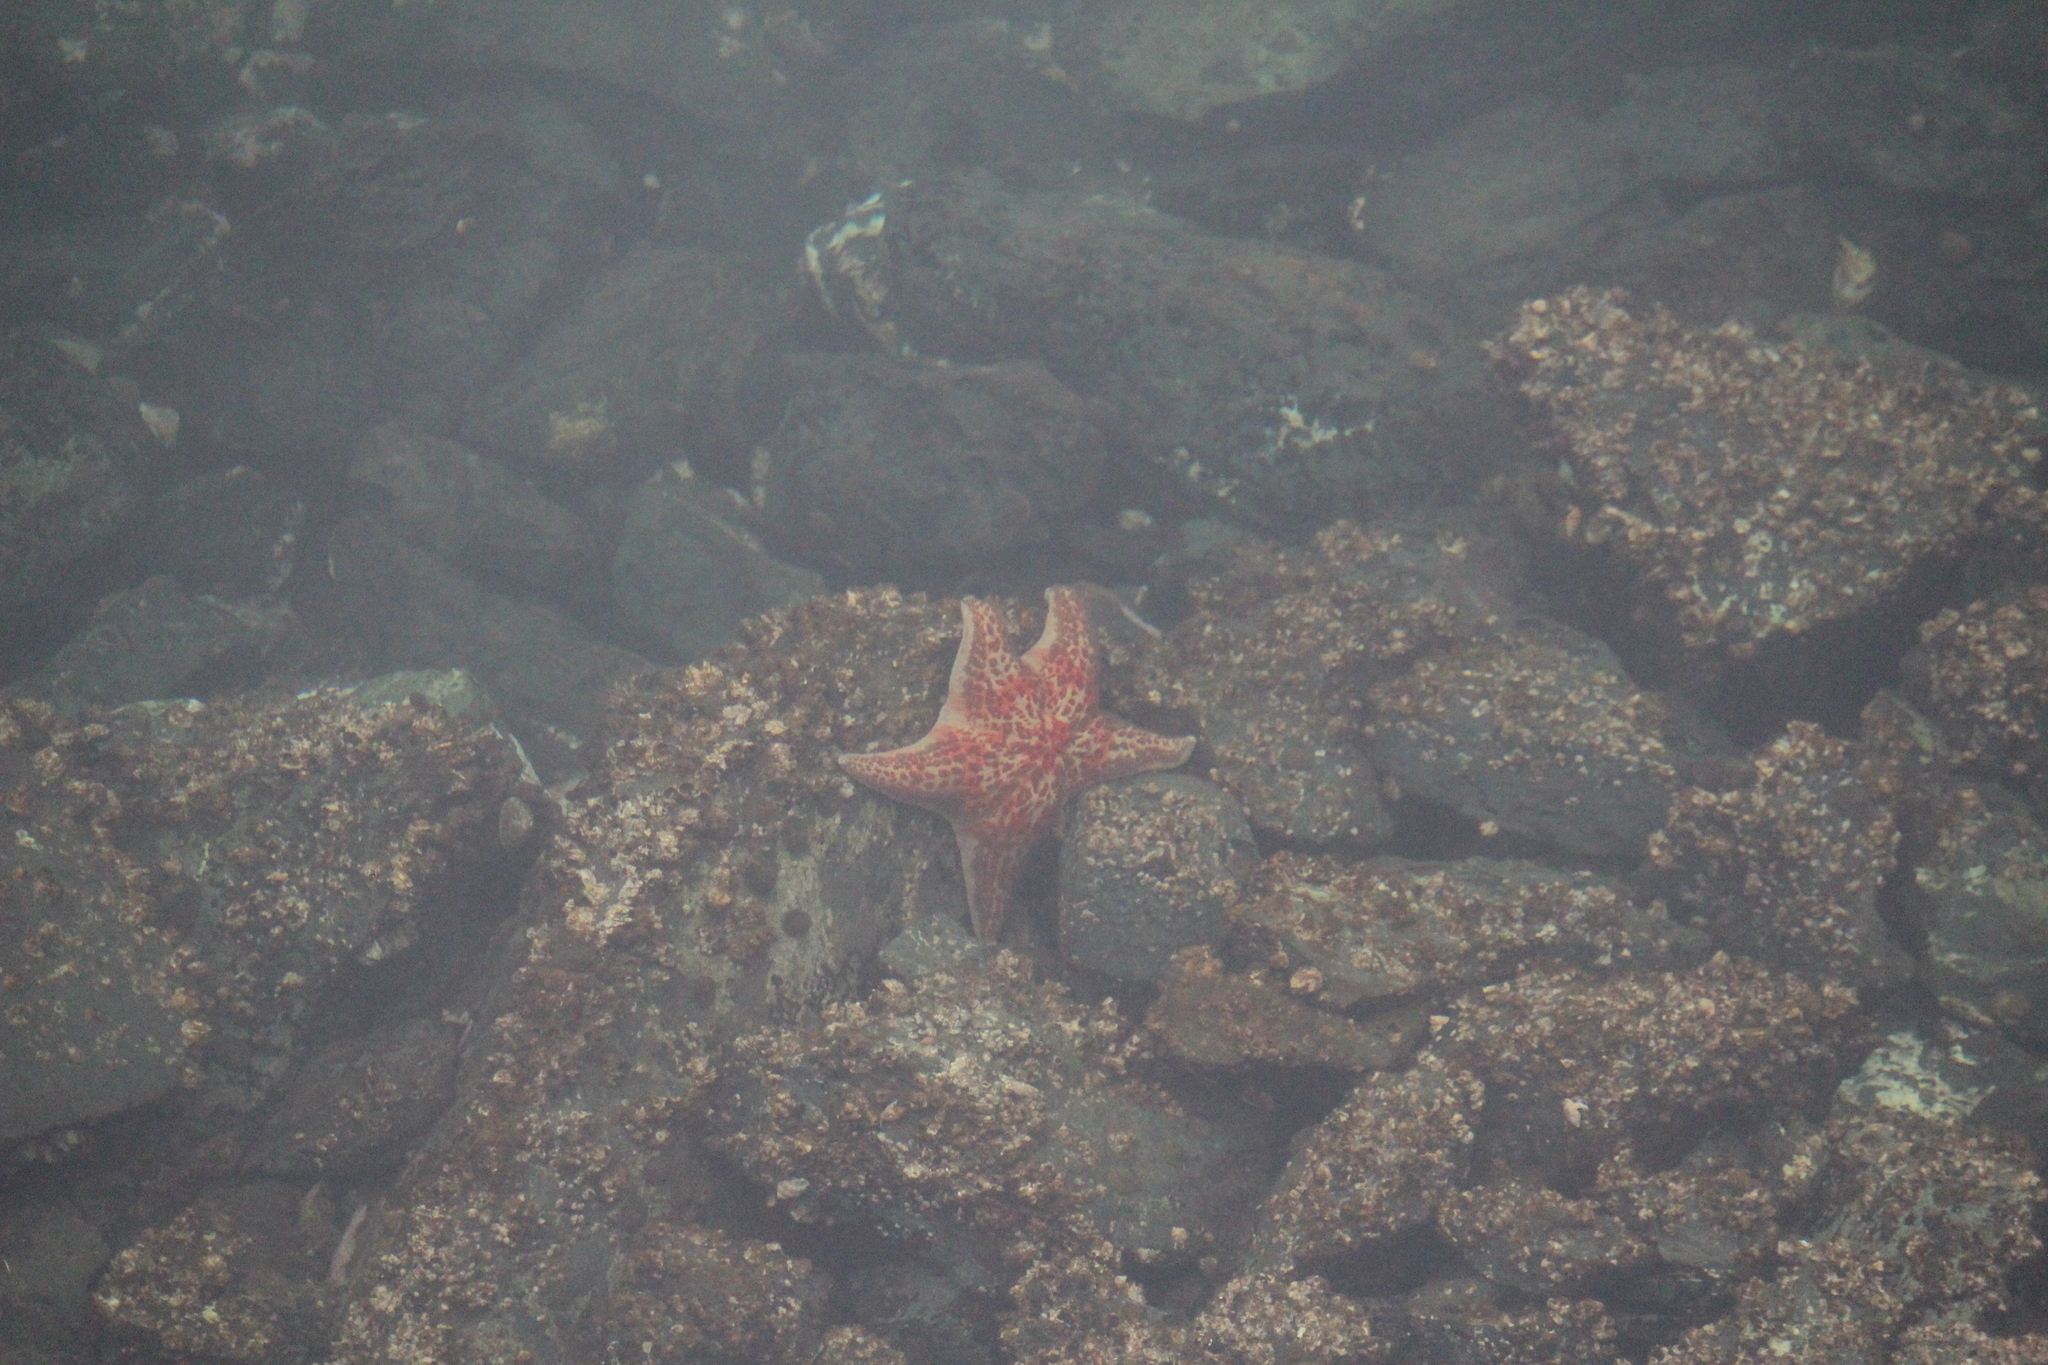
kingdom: Animalia
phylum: Echinodermata
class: Asteroidea
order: Valvatida
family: Asteropseidae
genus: Dermasterias
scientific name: Dermasterias imbricata
